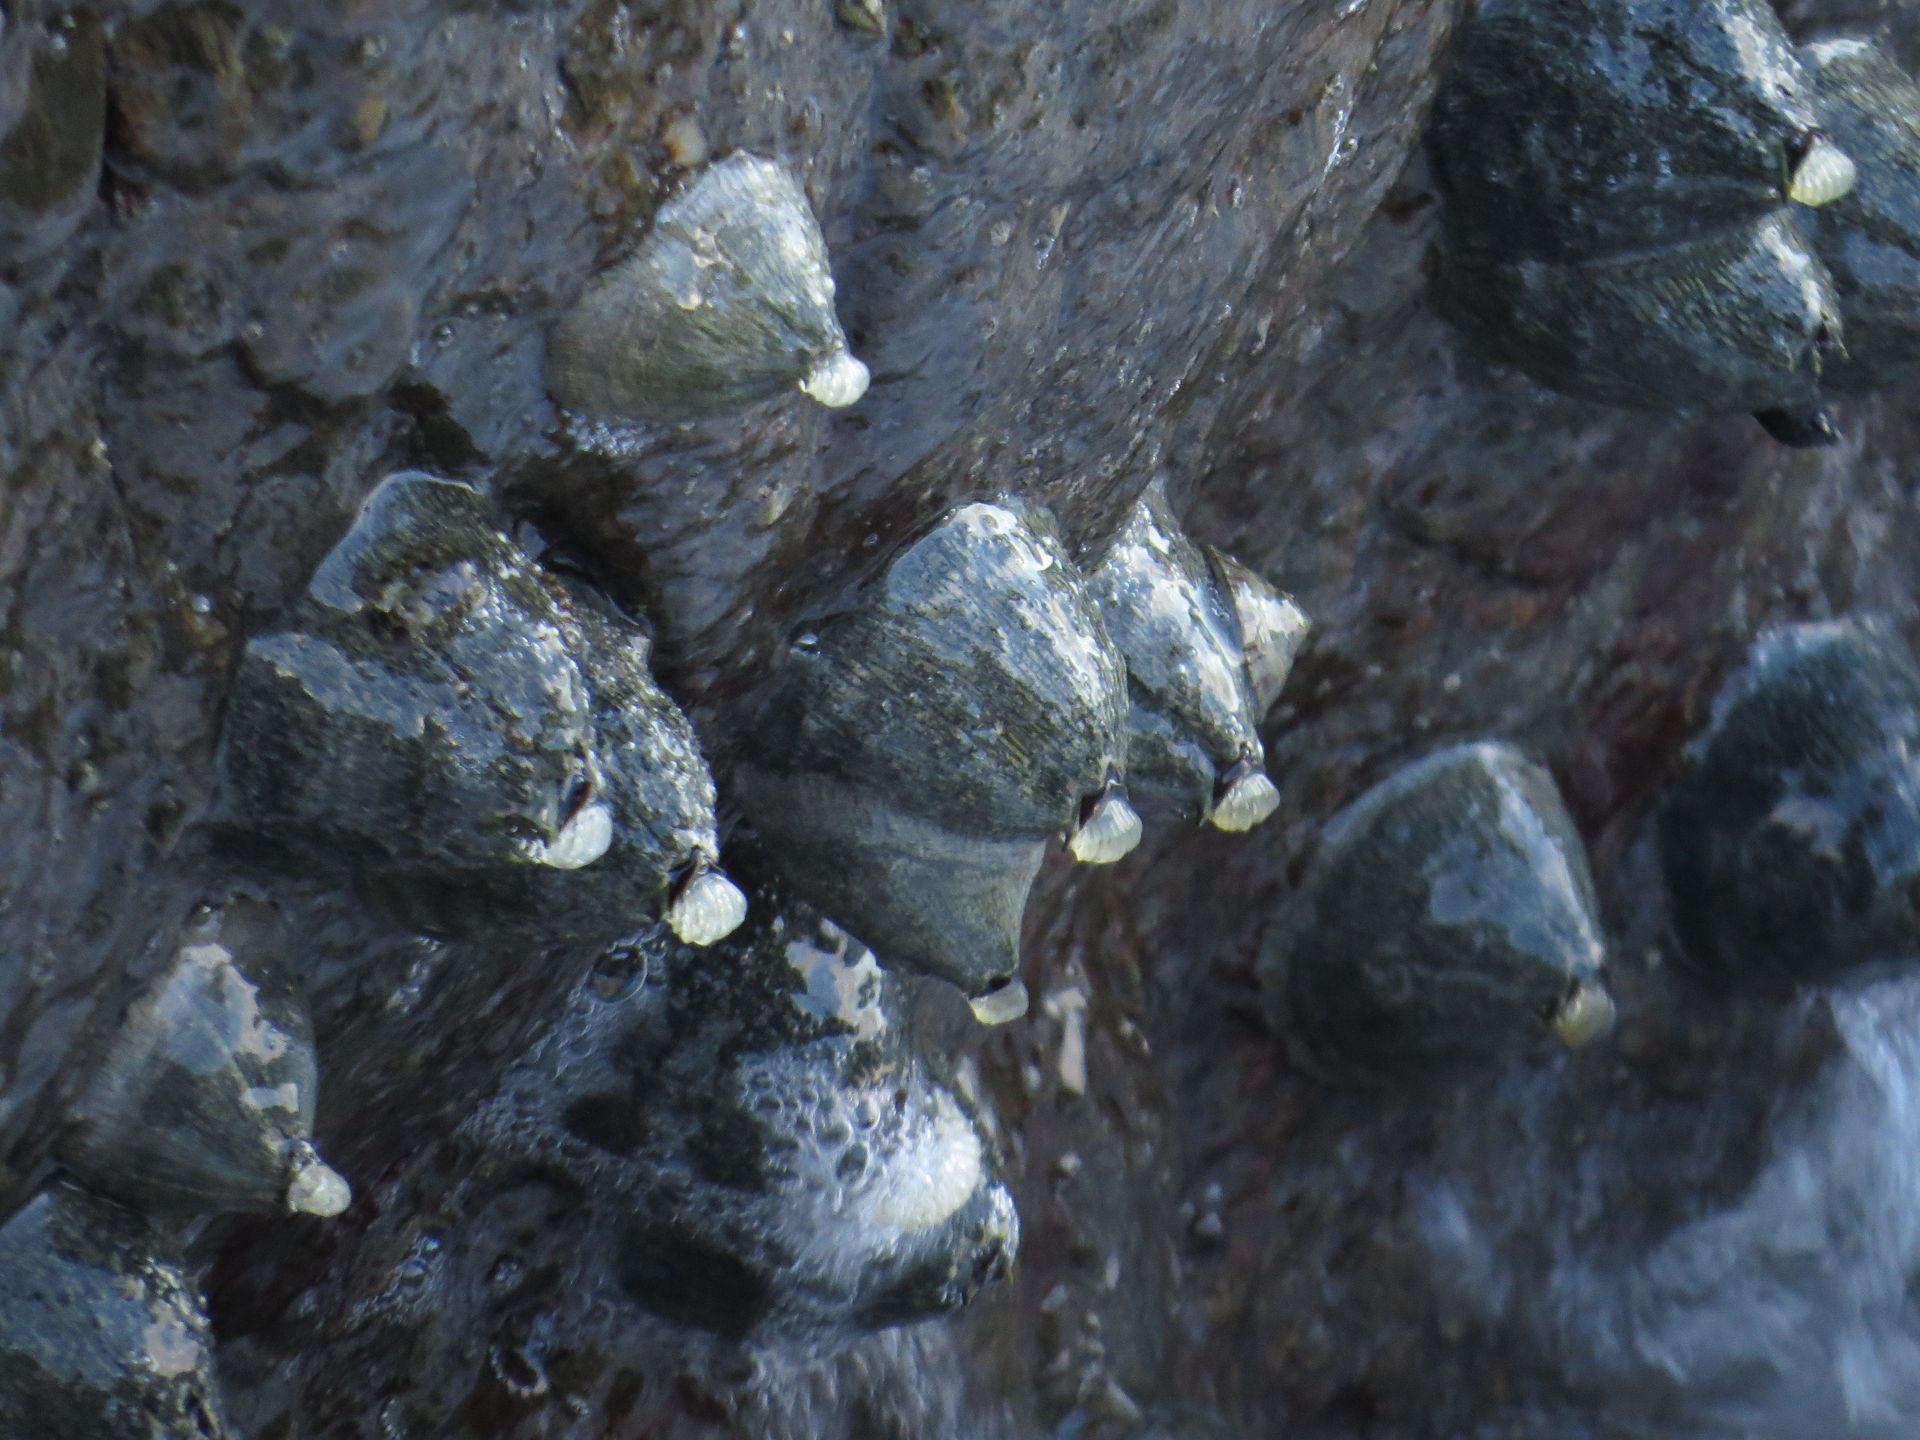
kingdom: Animalia
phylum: Arthropoda
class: Maxillopoda
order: Sessilia
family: Tetraclitidae
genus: Tetraclita
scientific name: Tetraclita squamosa
